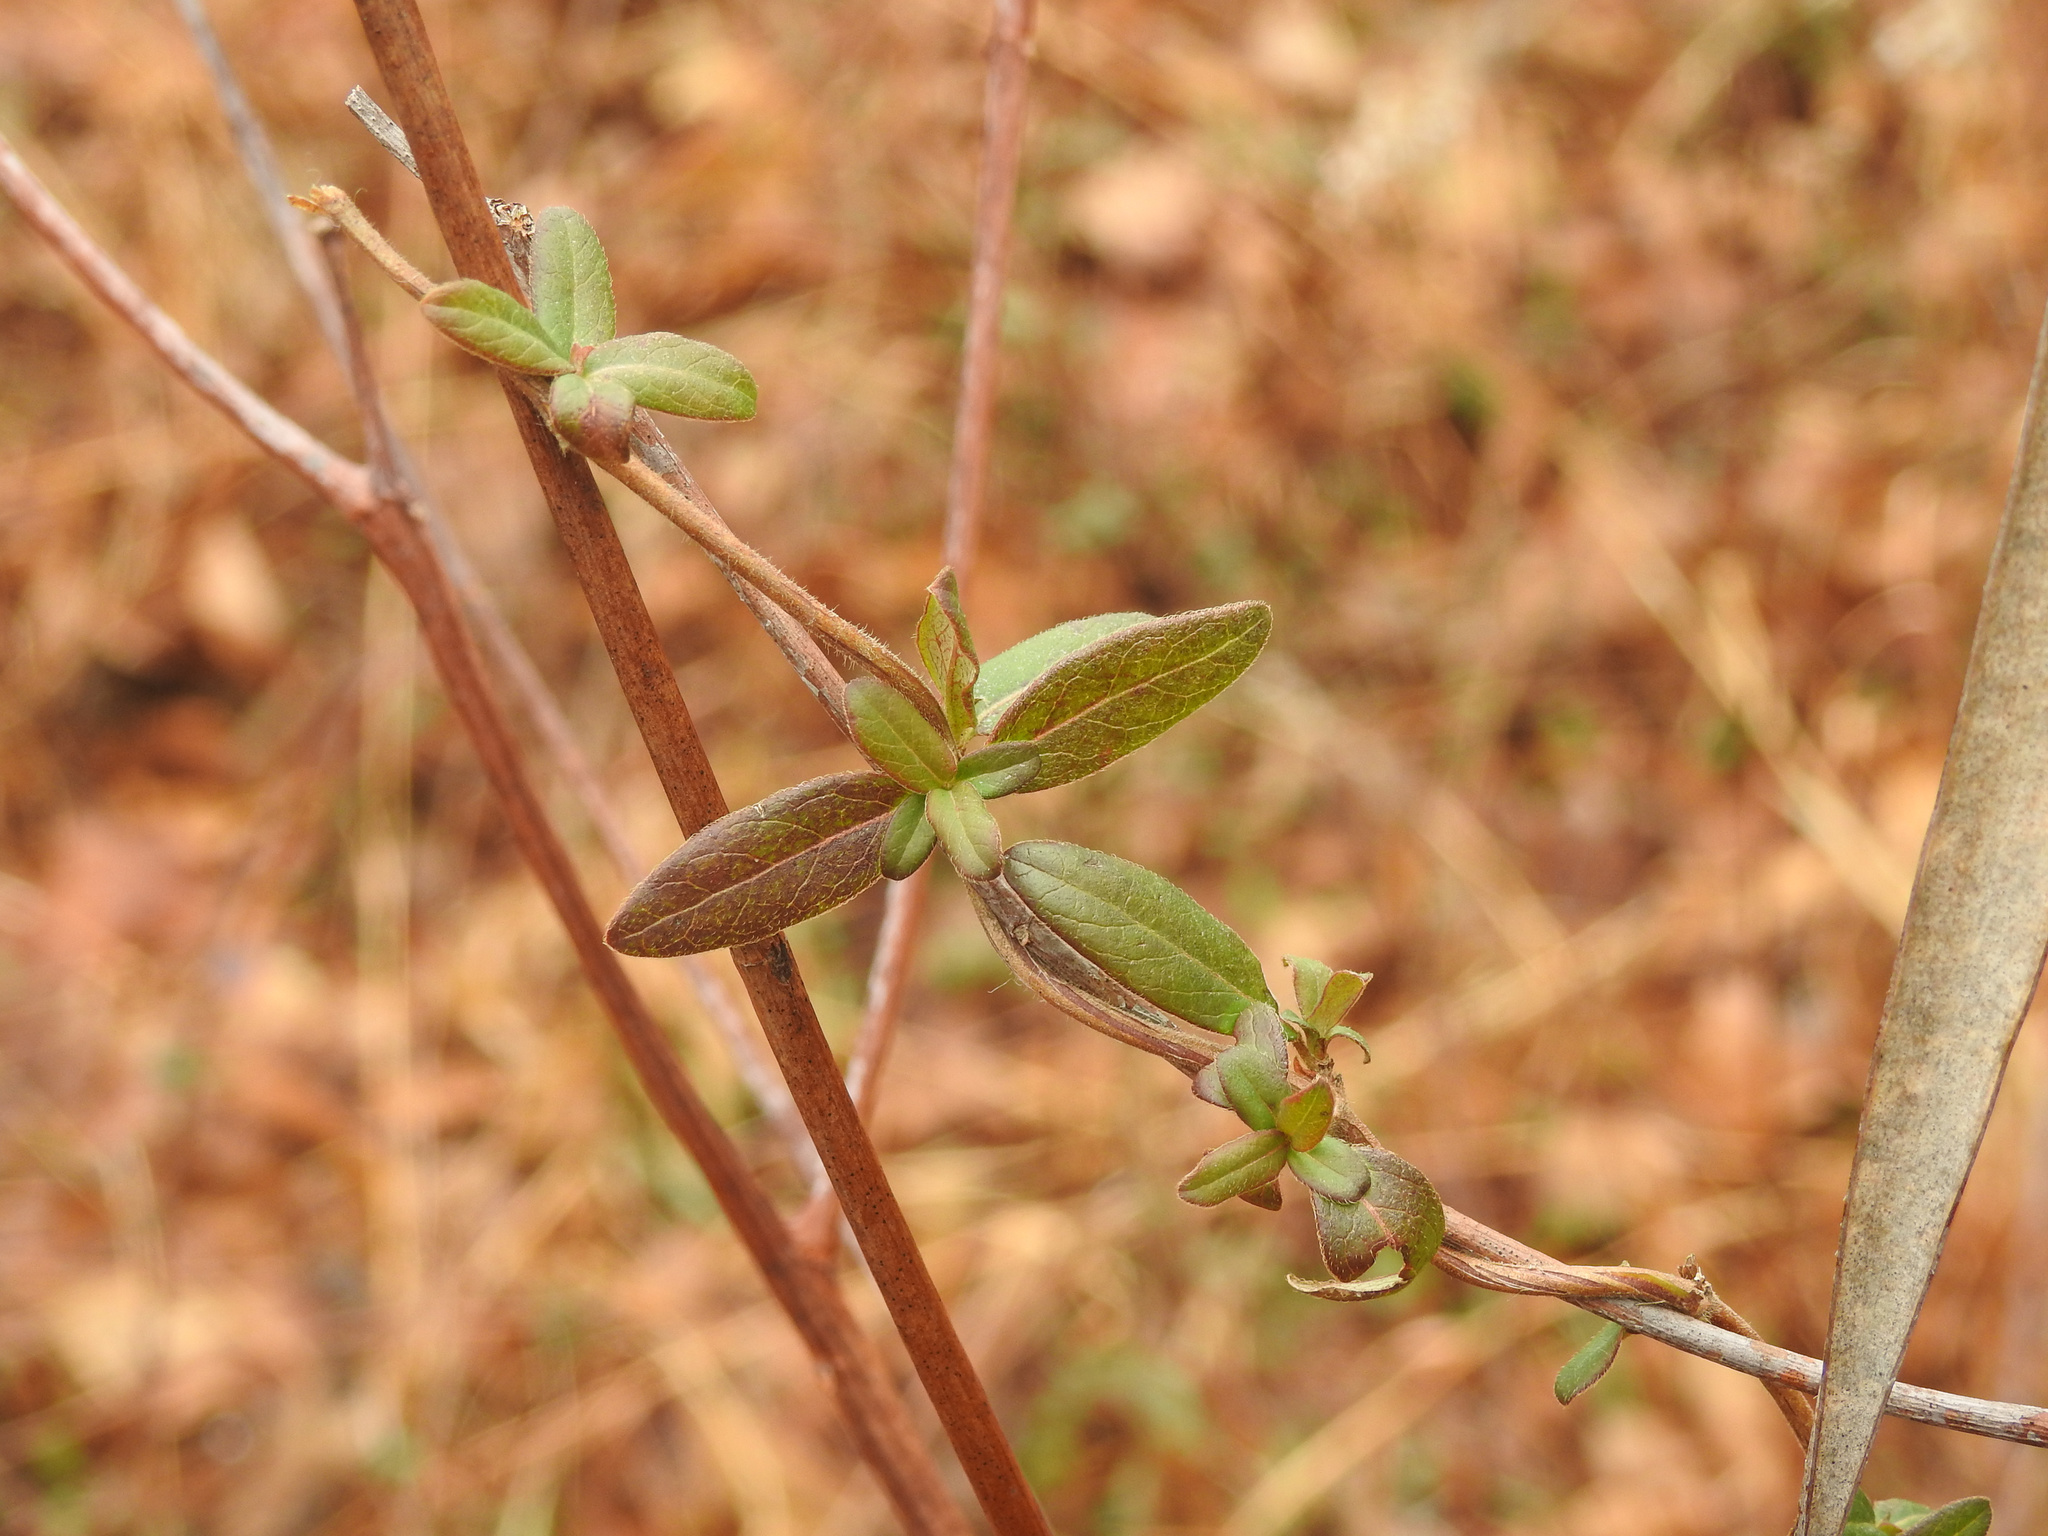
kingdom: Plantae
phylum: Tracheophyta
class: Magnoliopsida
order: Dipsacales
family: Caprifoliaceae
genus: Lonicera
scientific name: Lonicera japonica
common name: Japanese honeysuckle
